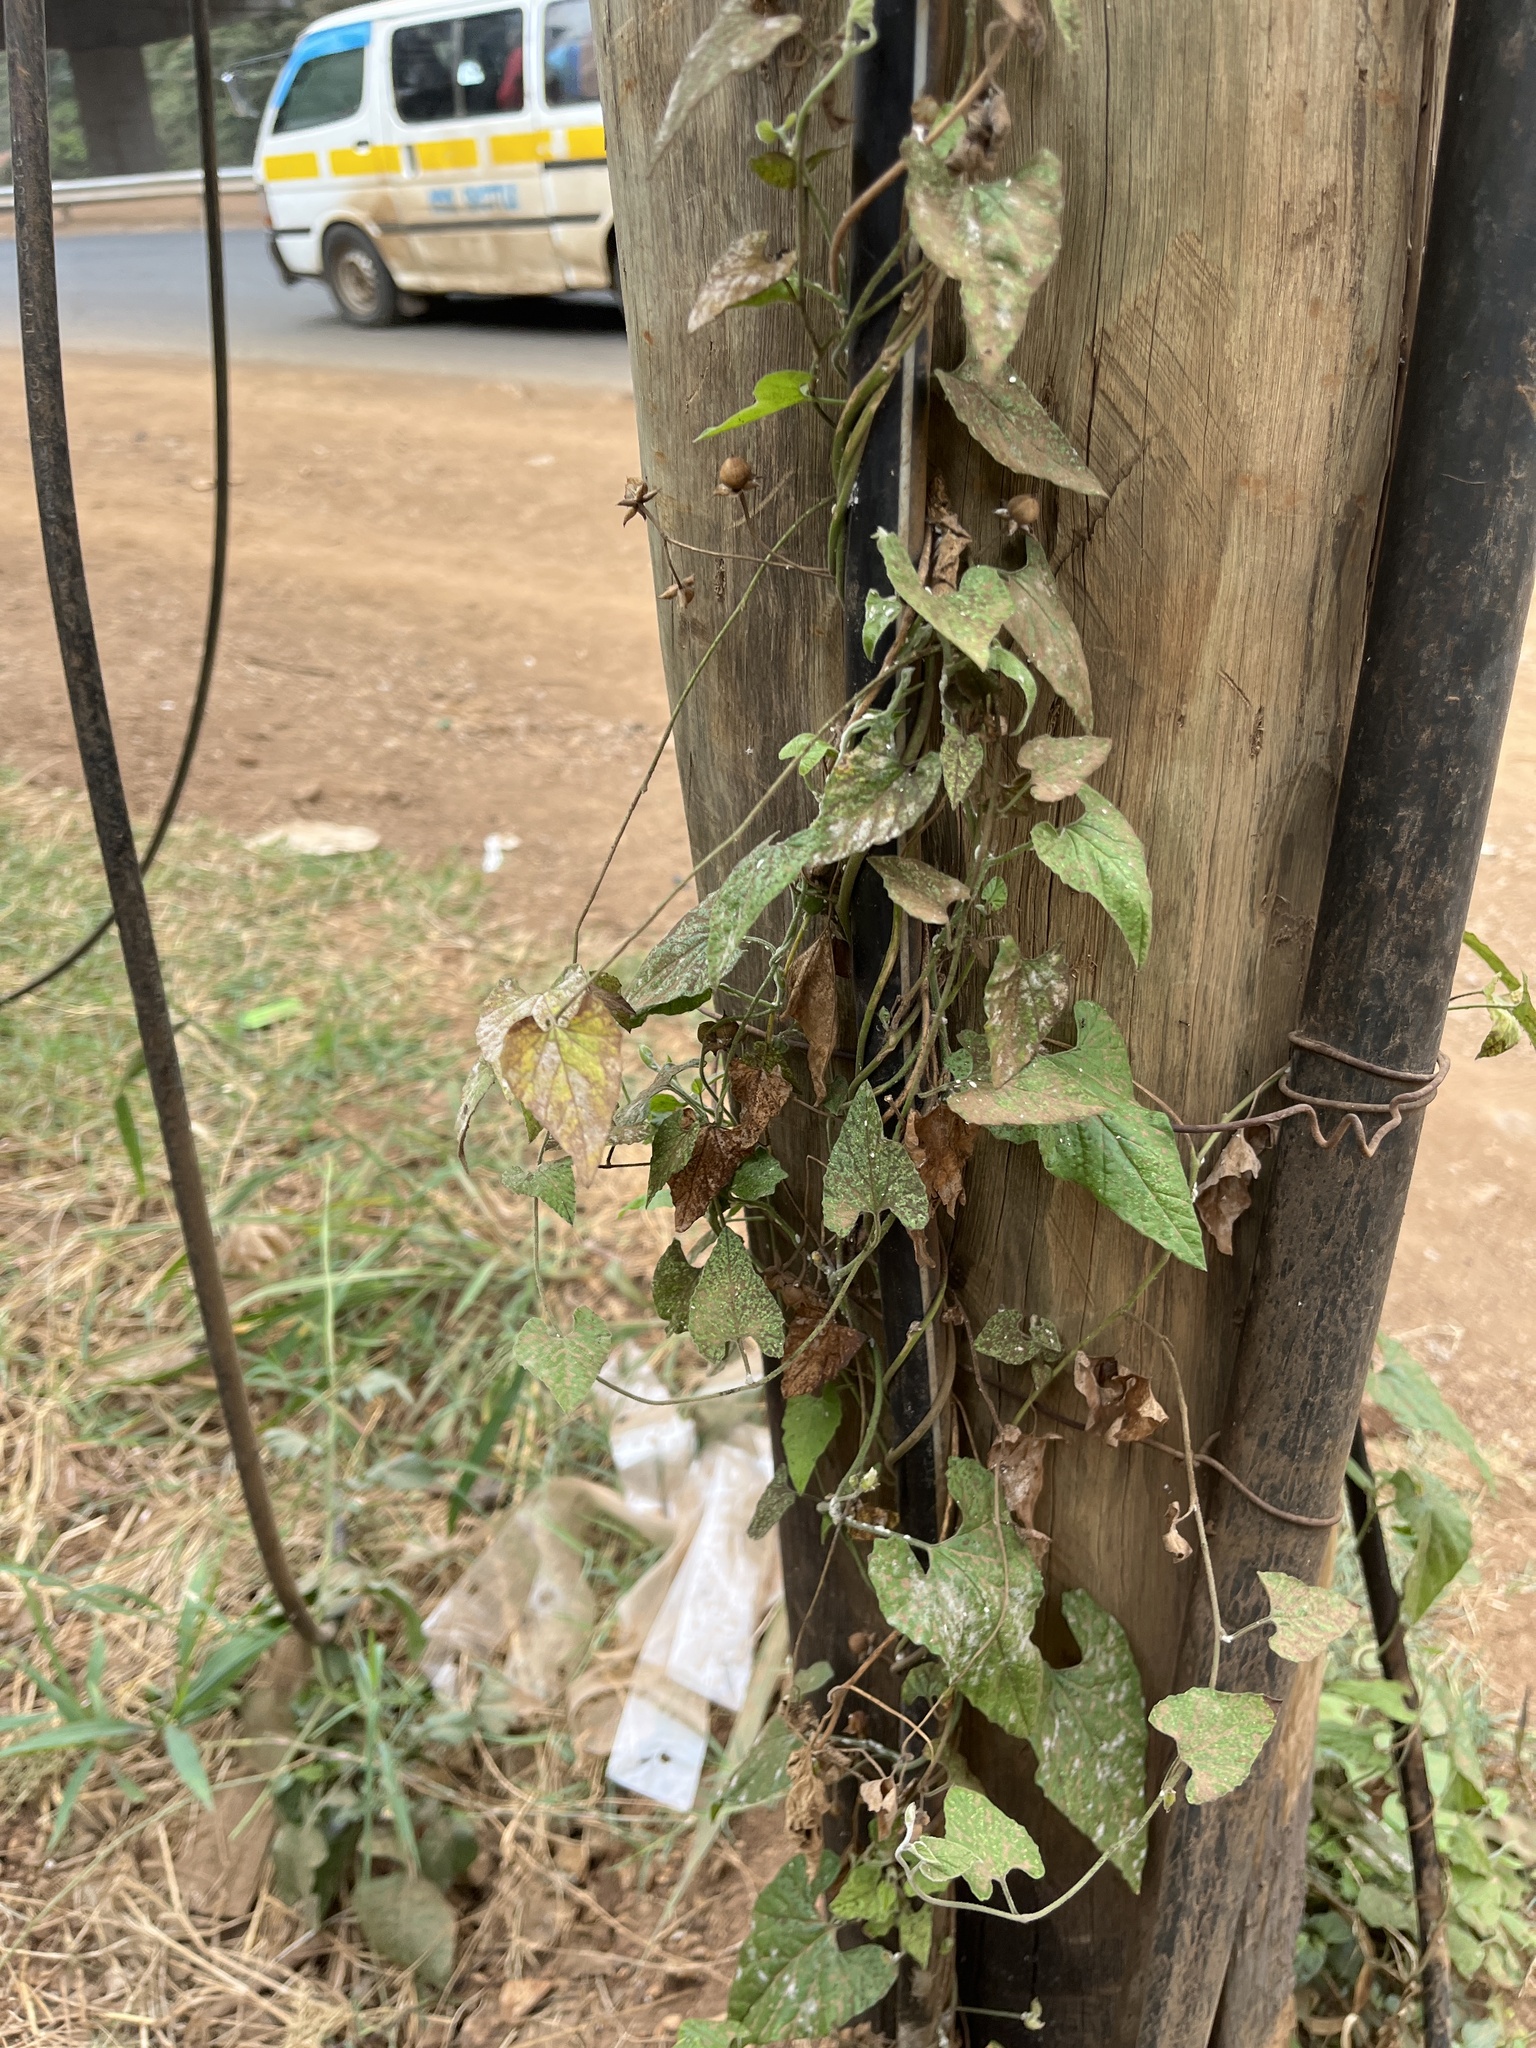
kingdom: Plantae
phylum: Tracheophyta
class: Magnoliopsida
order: Solanales
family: Convolvulaceae
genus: Convolvulus
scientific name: Convolvulus farinosus
